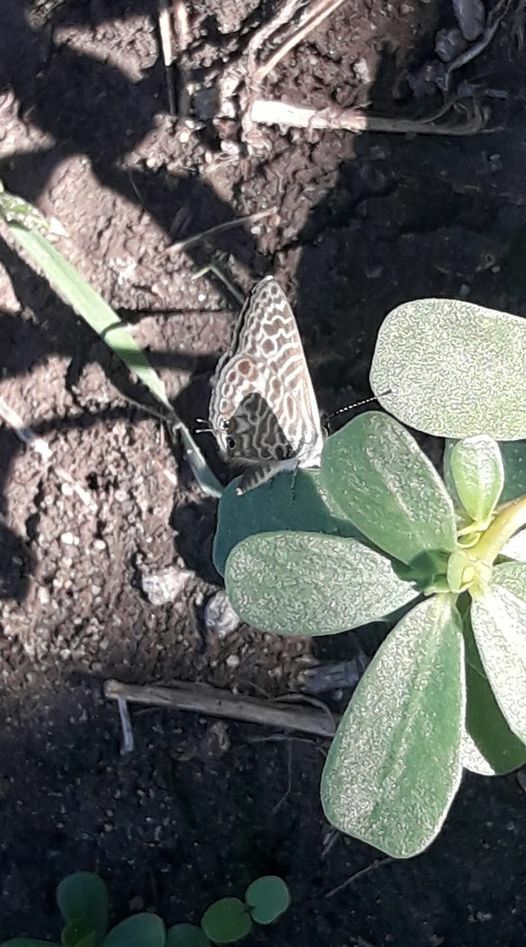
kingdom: Animalia
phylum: Arthropoda
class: Insecta
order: Lepidoptera
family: Lycaenidae
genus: Leptotes
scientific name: Leptotes pirithous
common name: Lang's short-tailed blue
